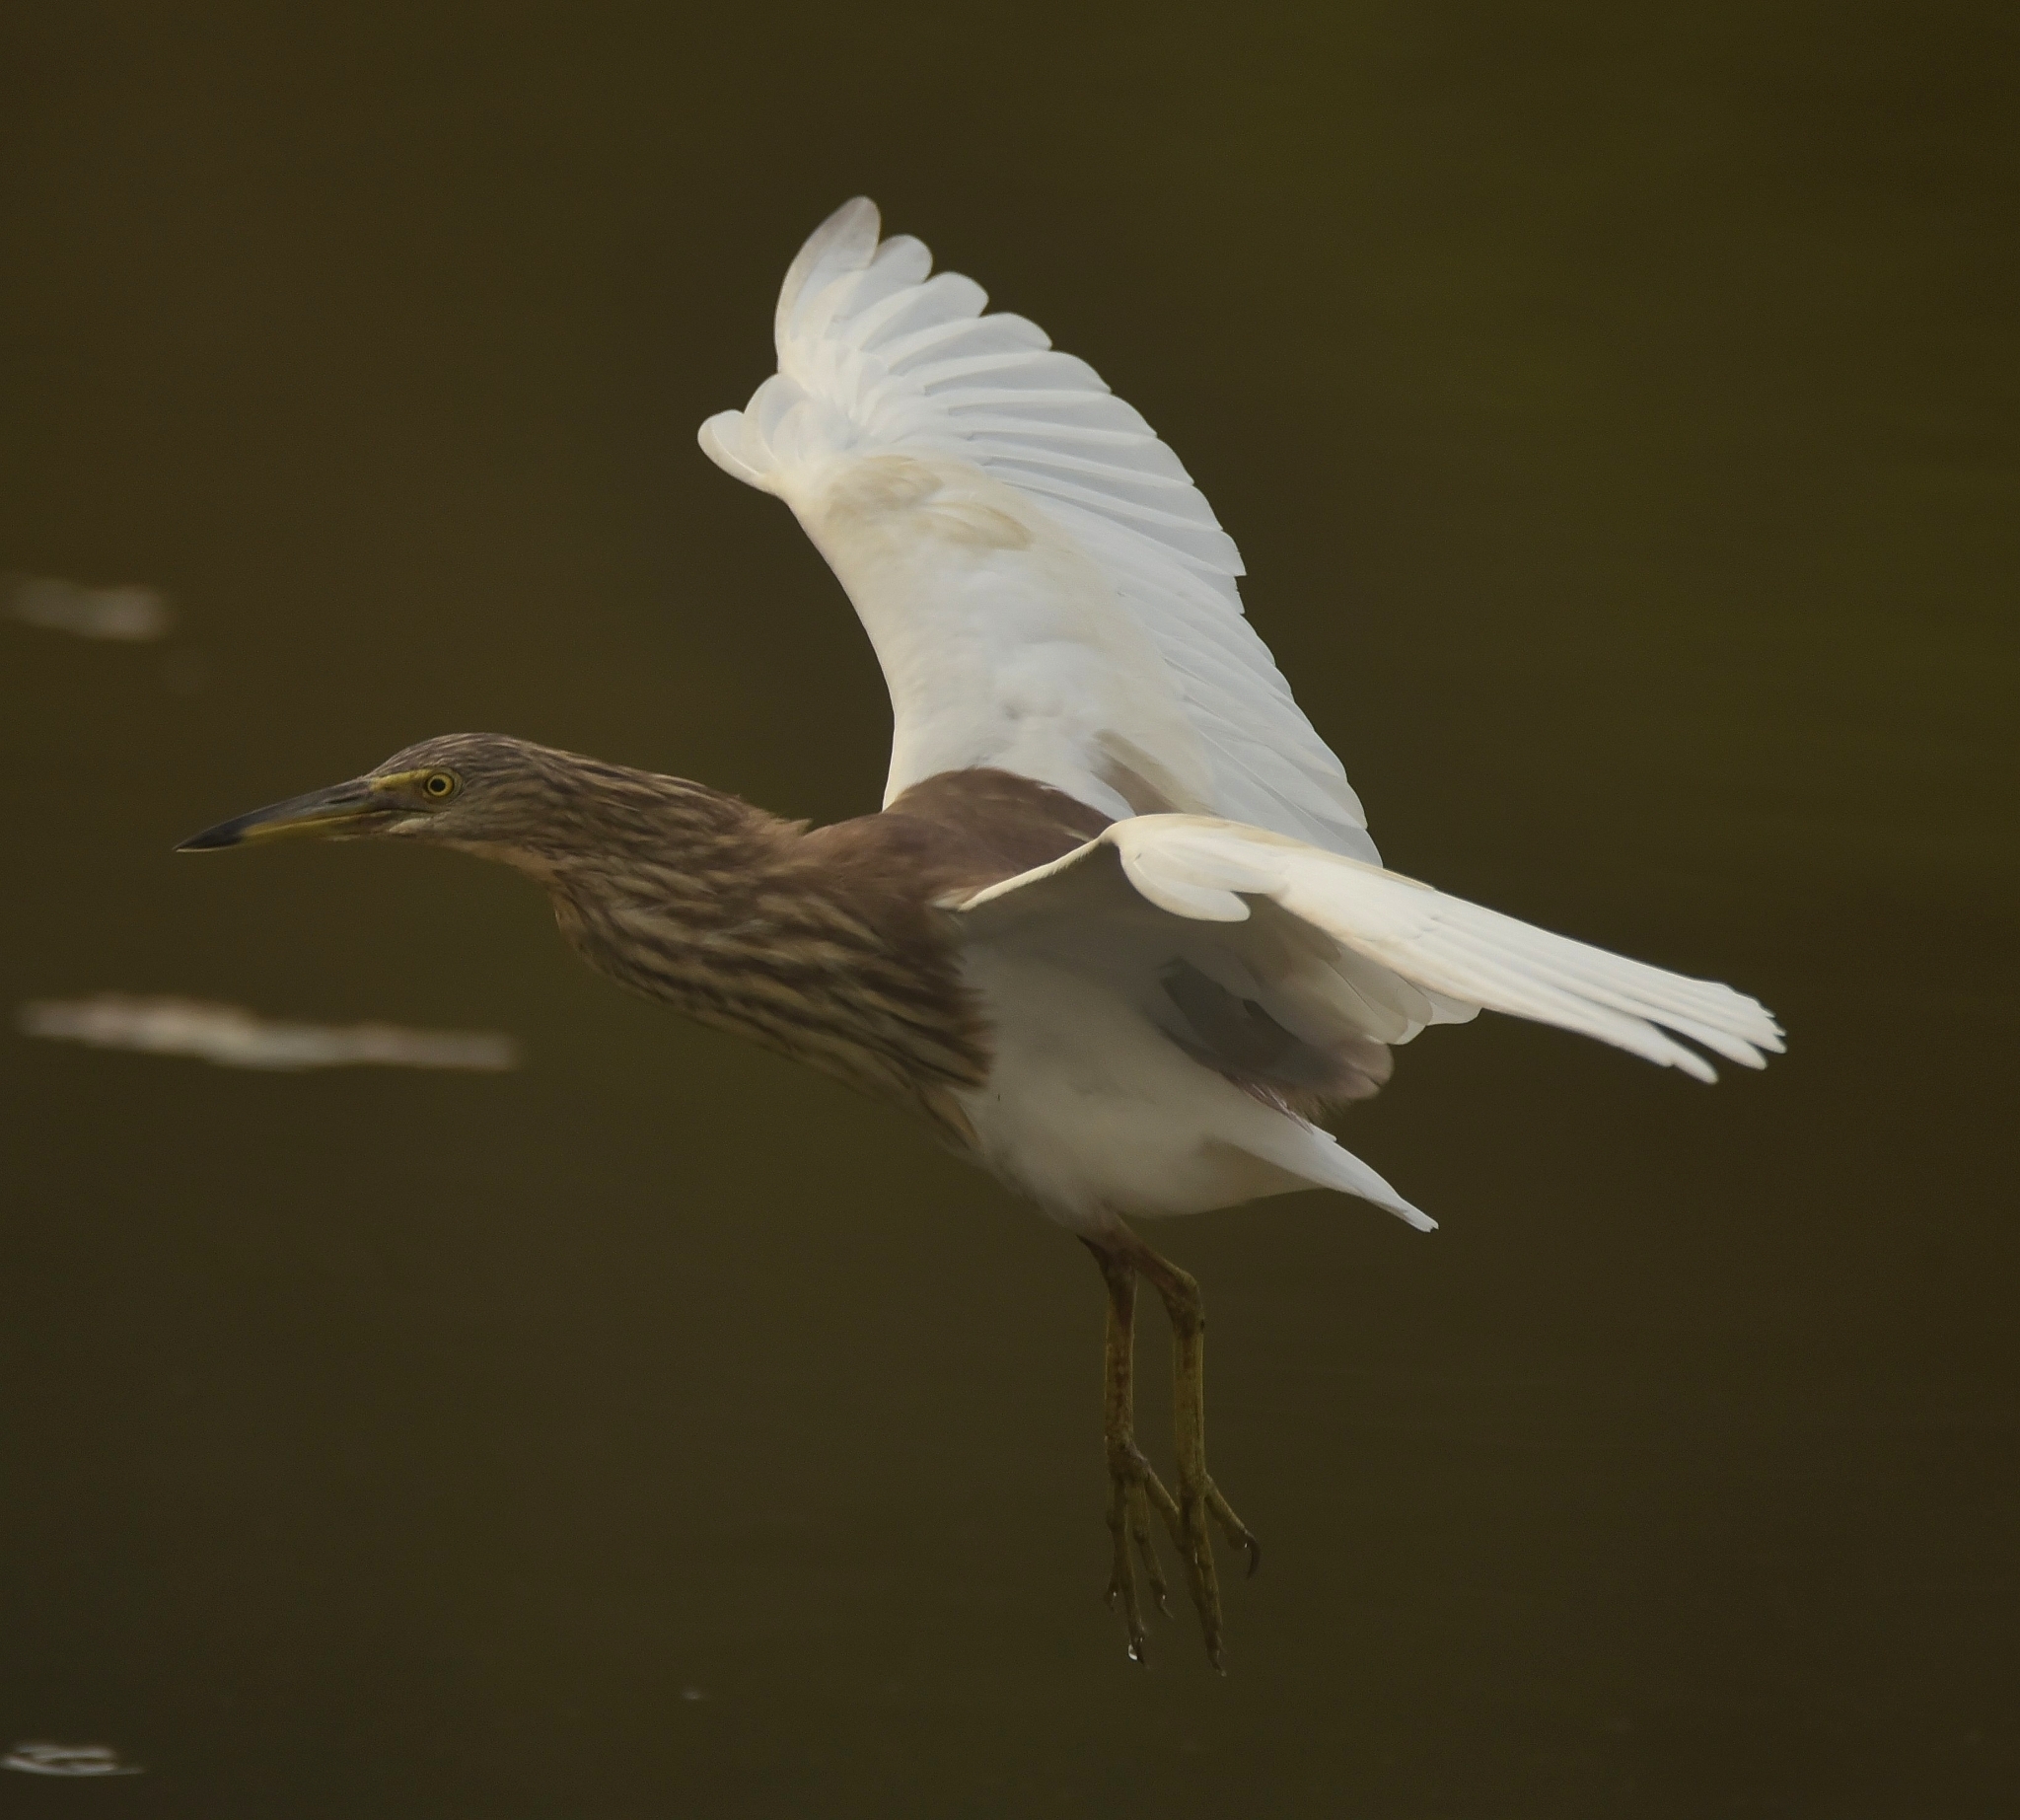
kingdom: Animalia
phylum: Chordata
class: Aves
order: Pelecaniformes
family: Ardeidae
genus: Ardeola
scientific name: Ardeola grayii
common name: Indian pond heron
